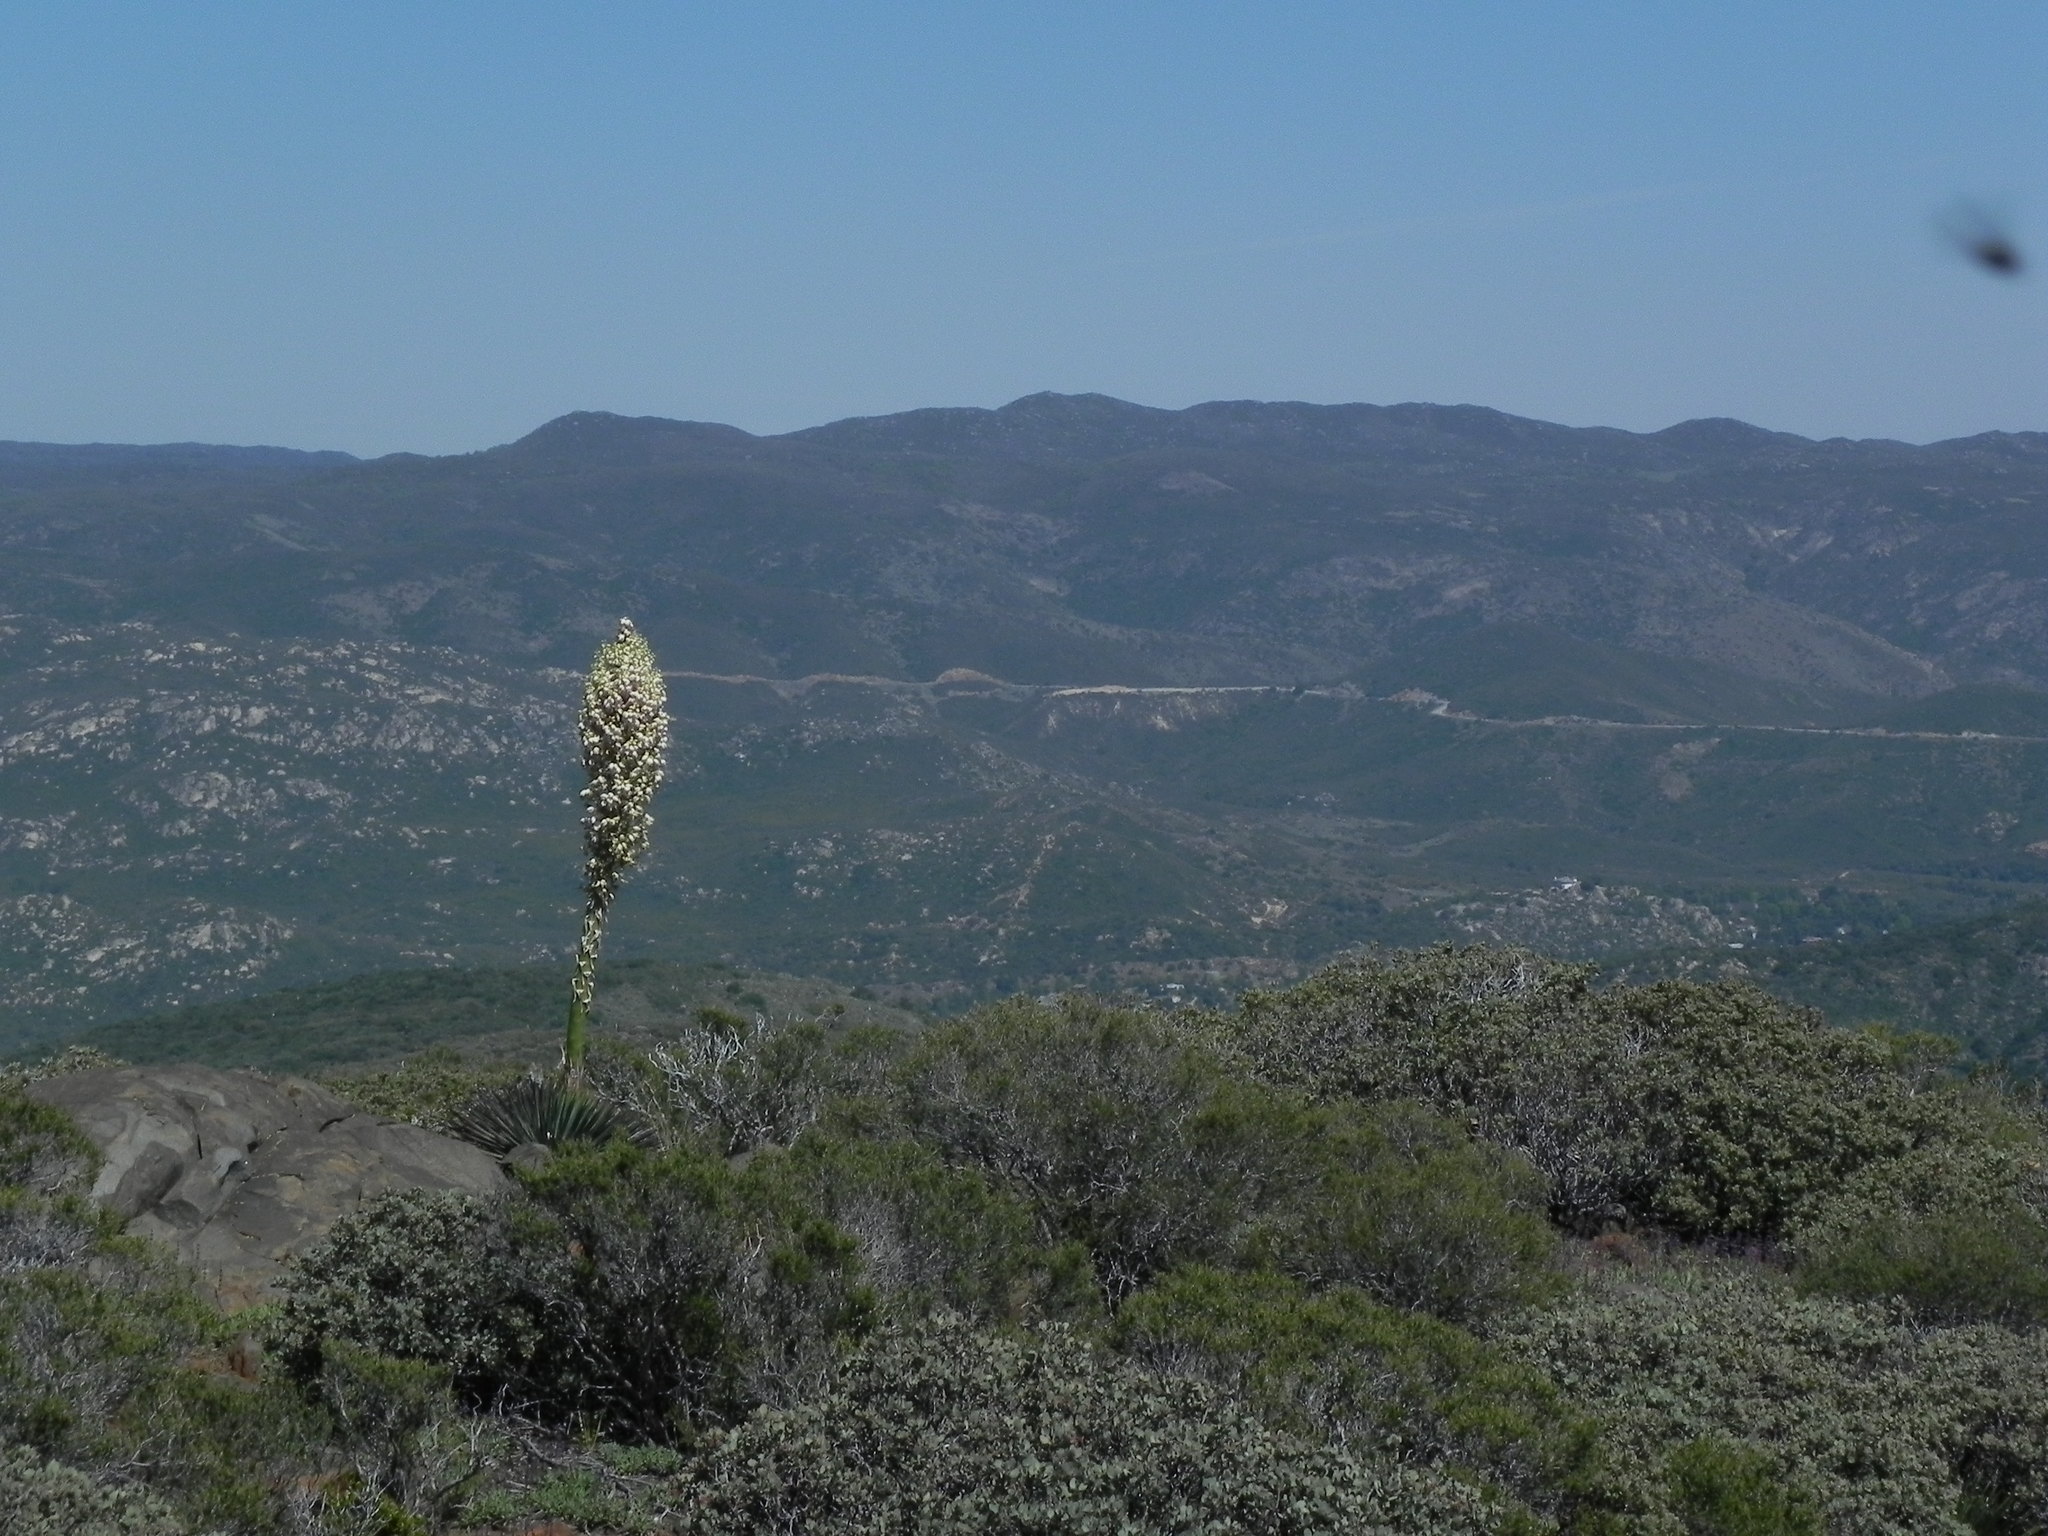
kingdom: Plantae
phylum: Tracheophyta
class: Liliopsida
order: Asparagales
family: Asparagaceae
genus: Hesperoyucca
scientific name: Hesperoyucca whipplei
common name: Our lord's-candle
